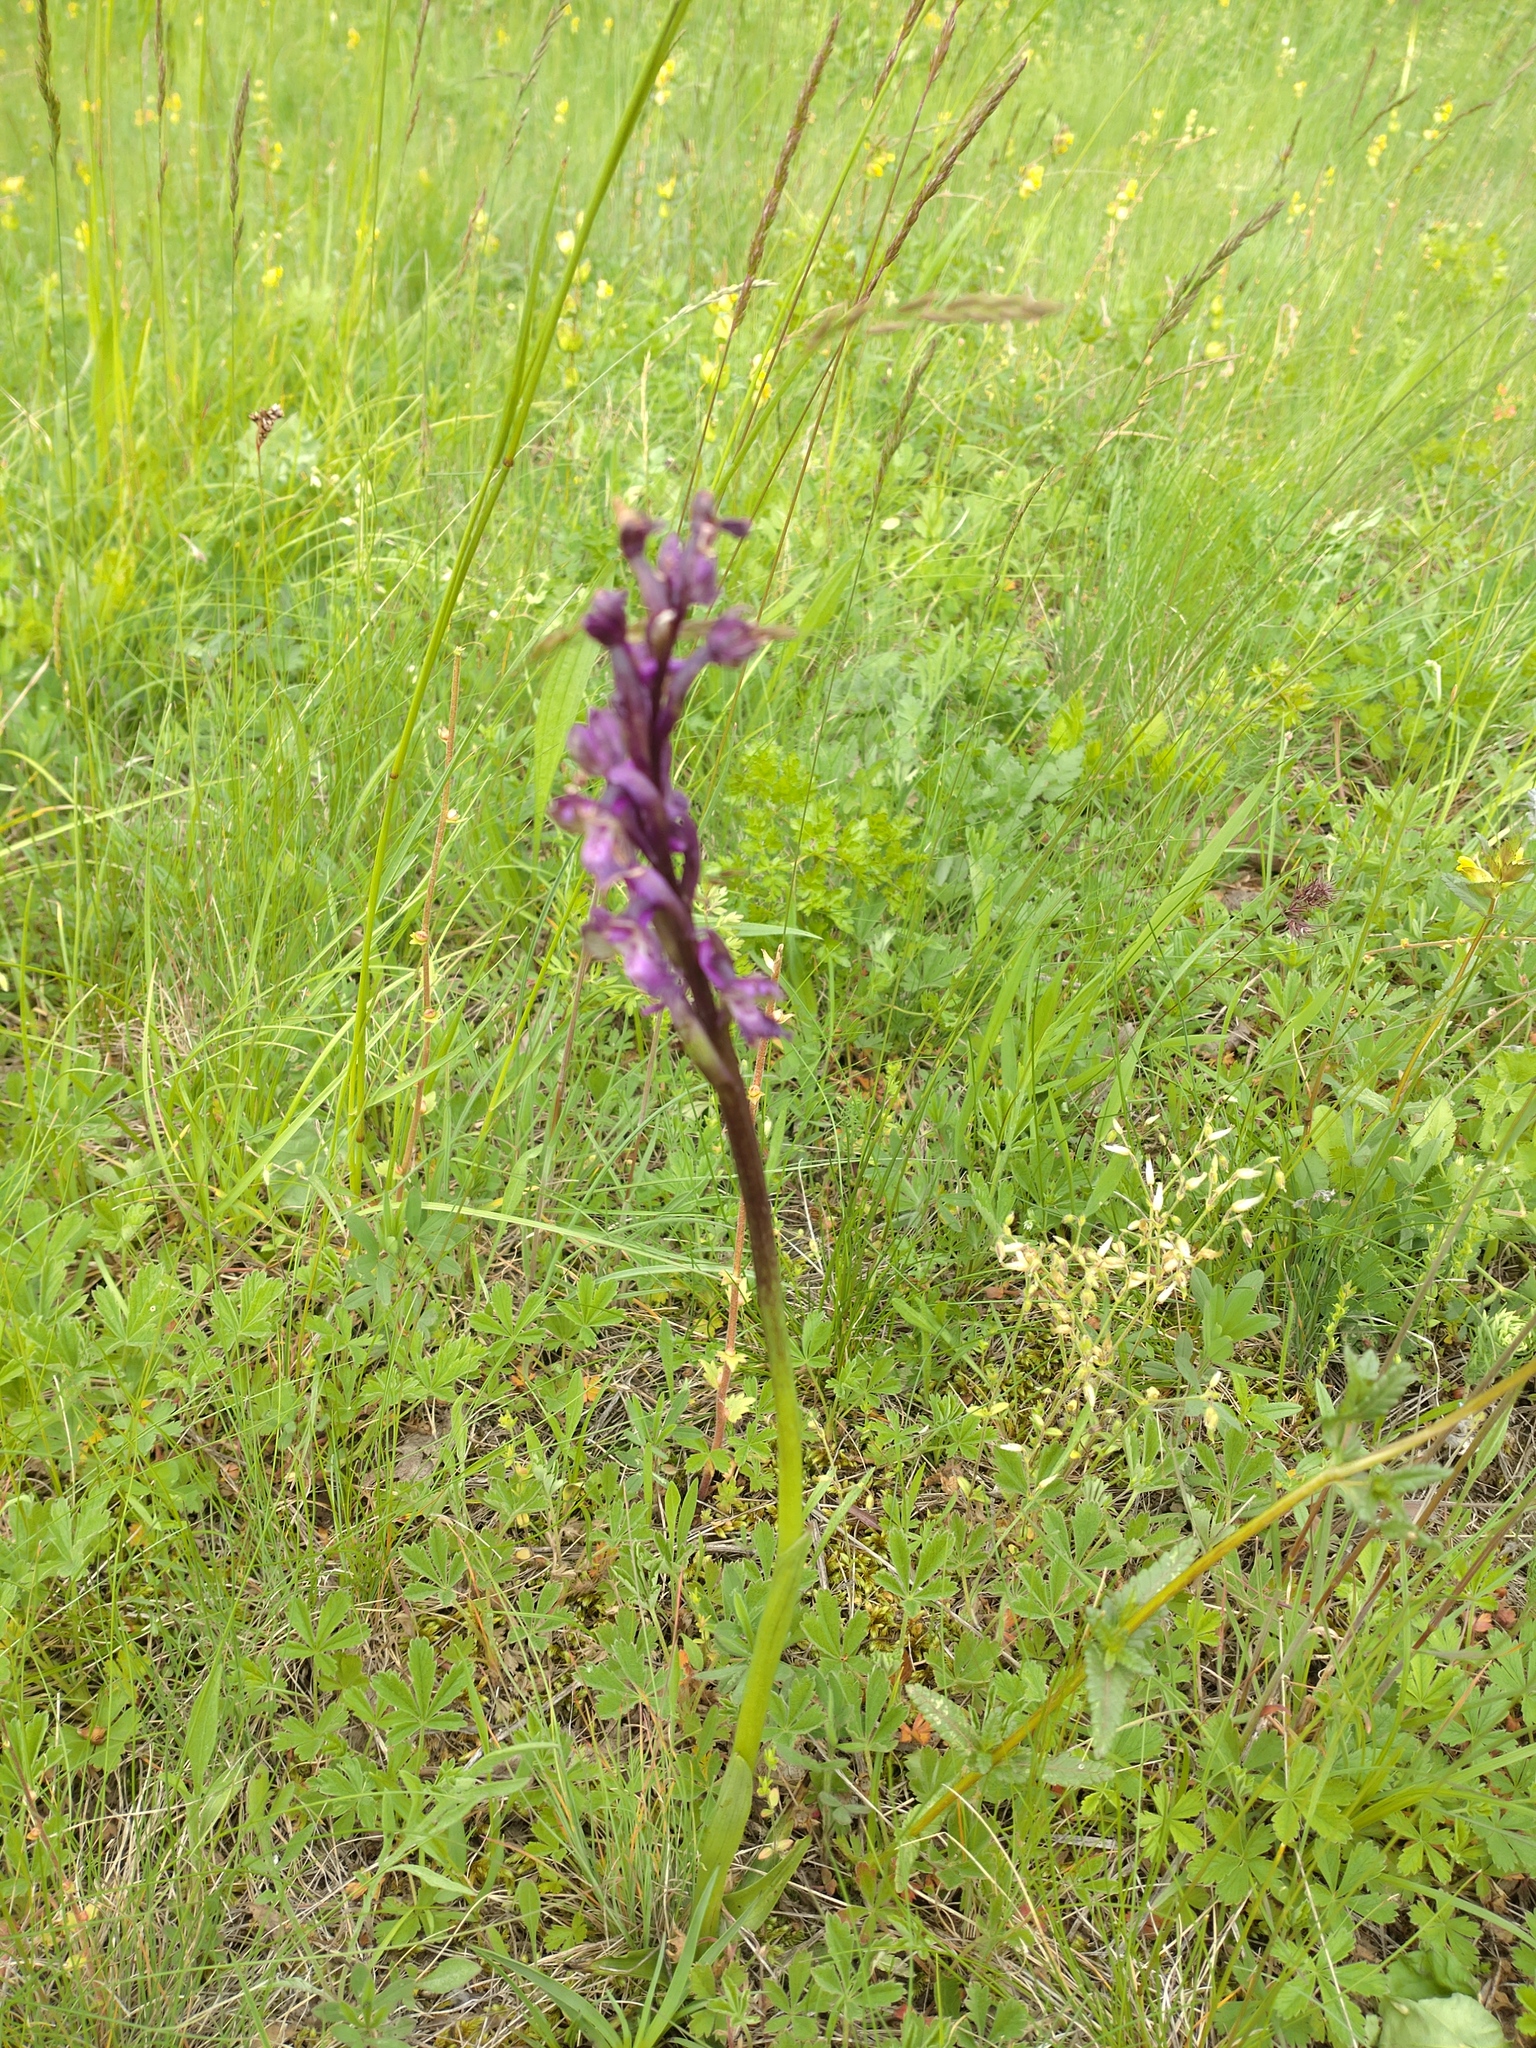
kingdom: Plantae
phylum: Tracheophyta
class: Liliopsida
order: Asparagales
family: Orchidaceae
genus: Anacamptis
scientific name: Anacamptis morio
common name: Green-winged orchid
